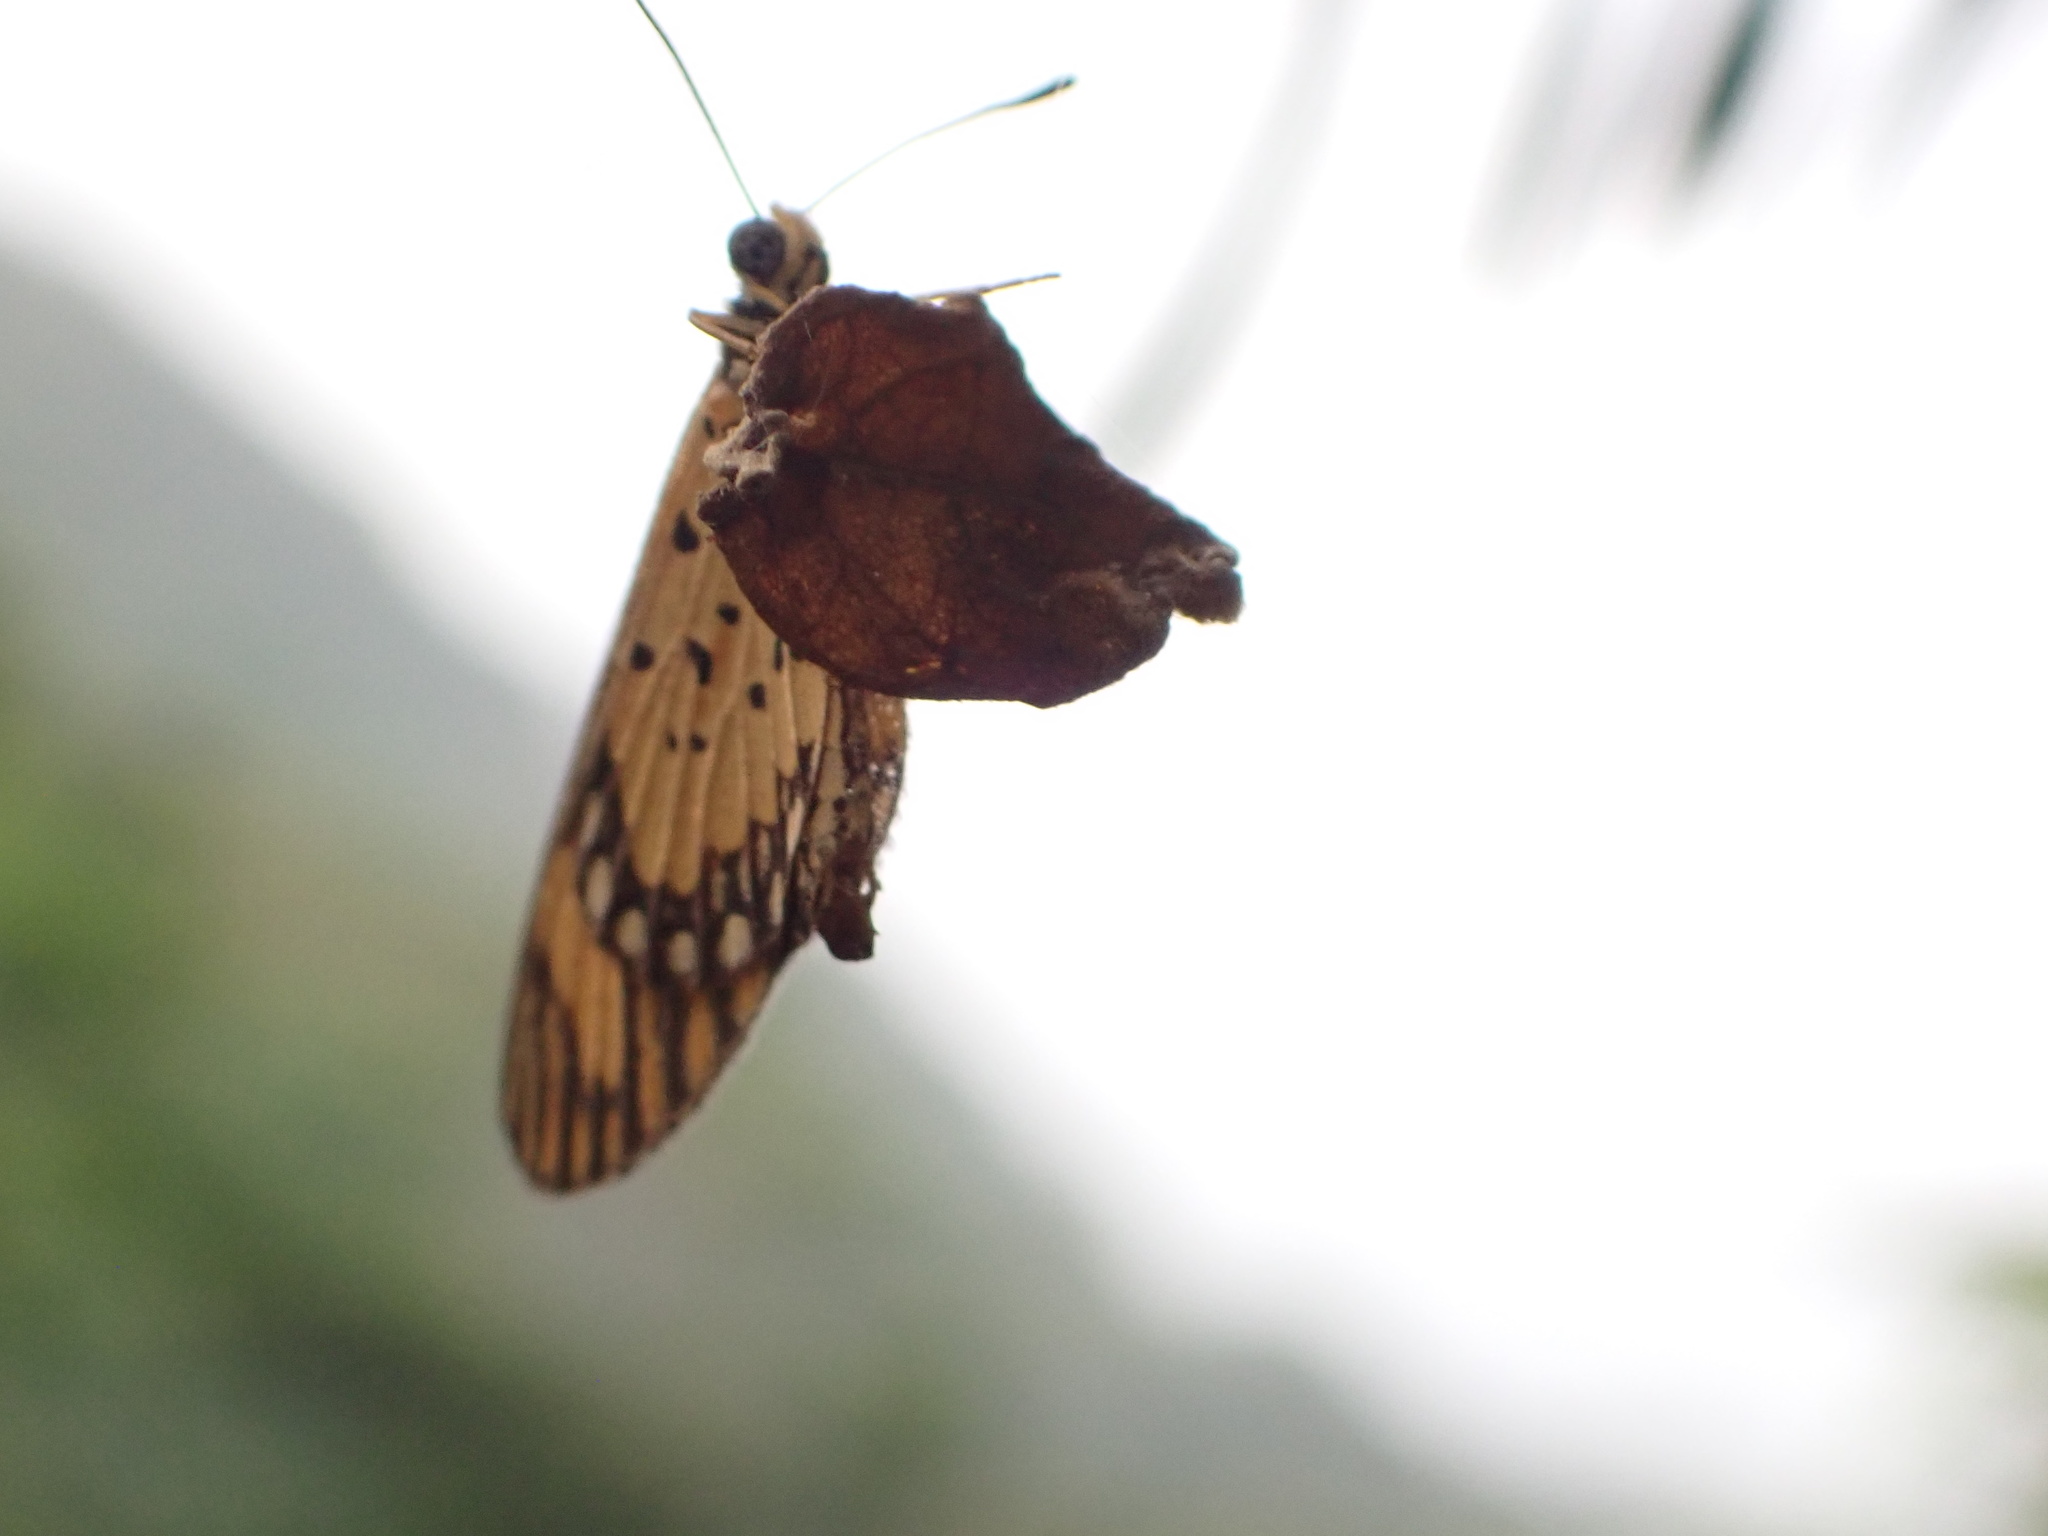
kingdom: Animalia
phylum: Arthropoda
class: Insecta
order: Lepidoptera
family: Nymphalidae
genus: Acraea
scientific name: Acraea Telchinia serena
